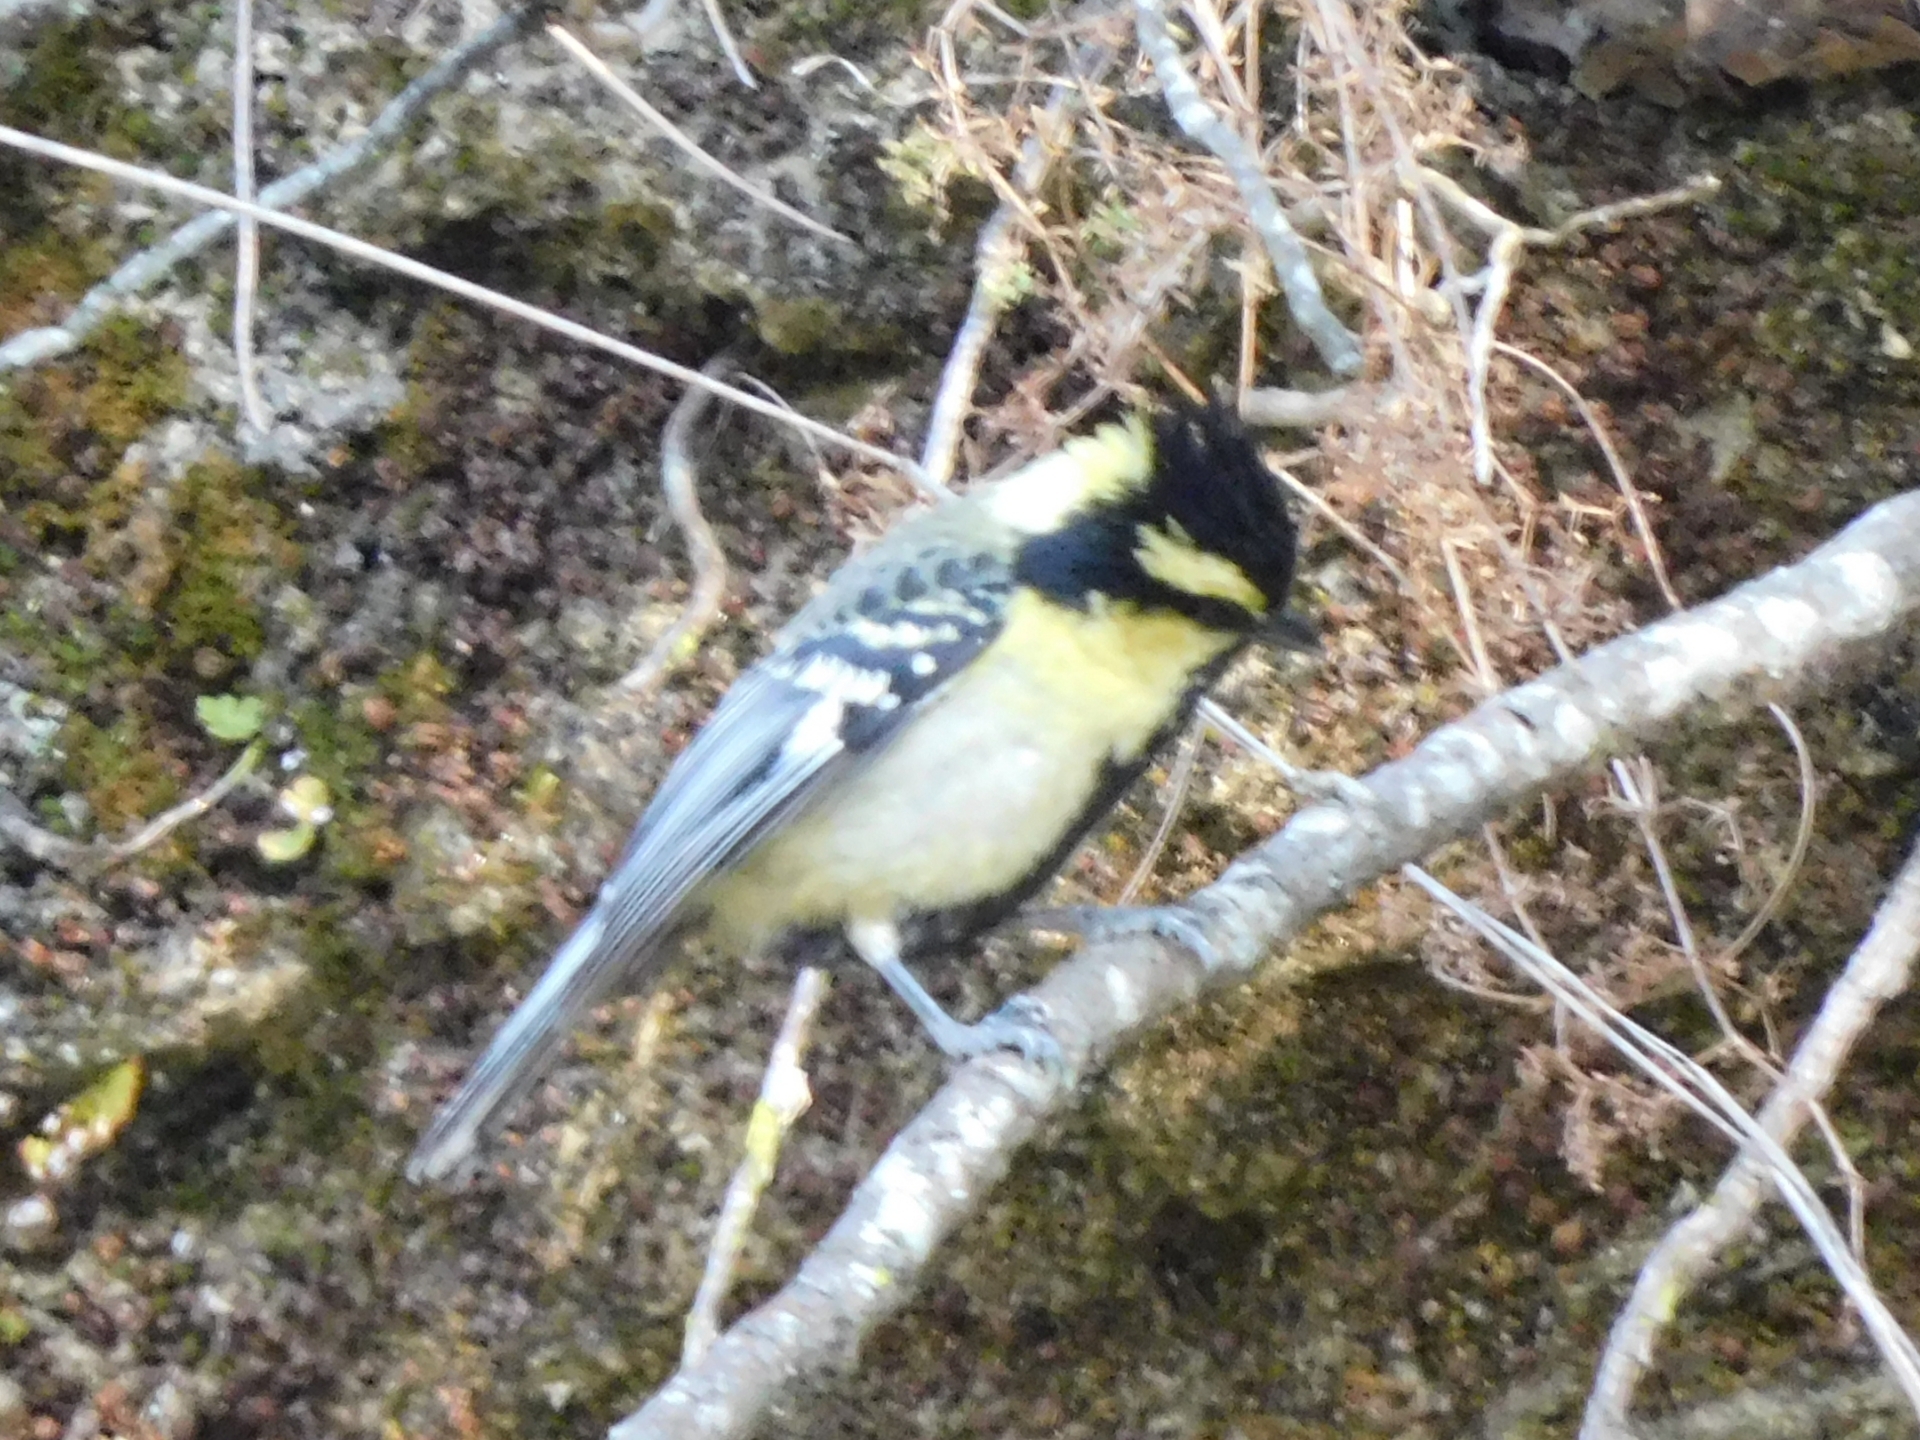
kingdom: Animalia
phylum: Chordata
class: Aves
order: Passeriformes
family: Paridae
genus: Parus
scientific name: Parus xanthogenys
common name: Black-lored tit
